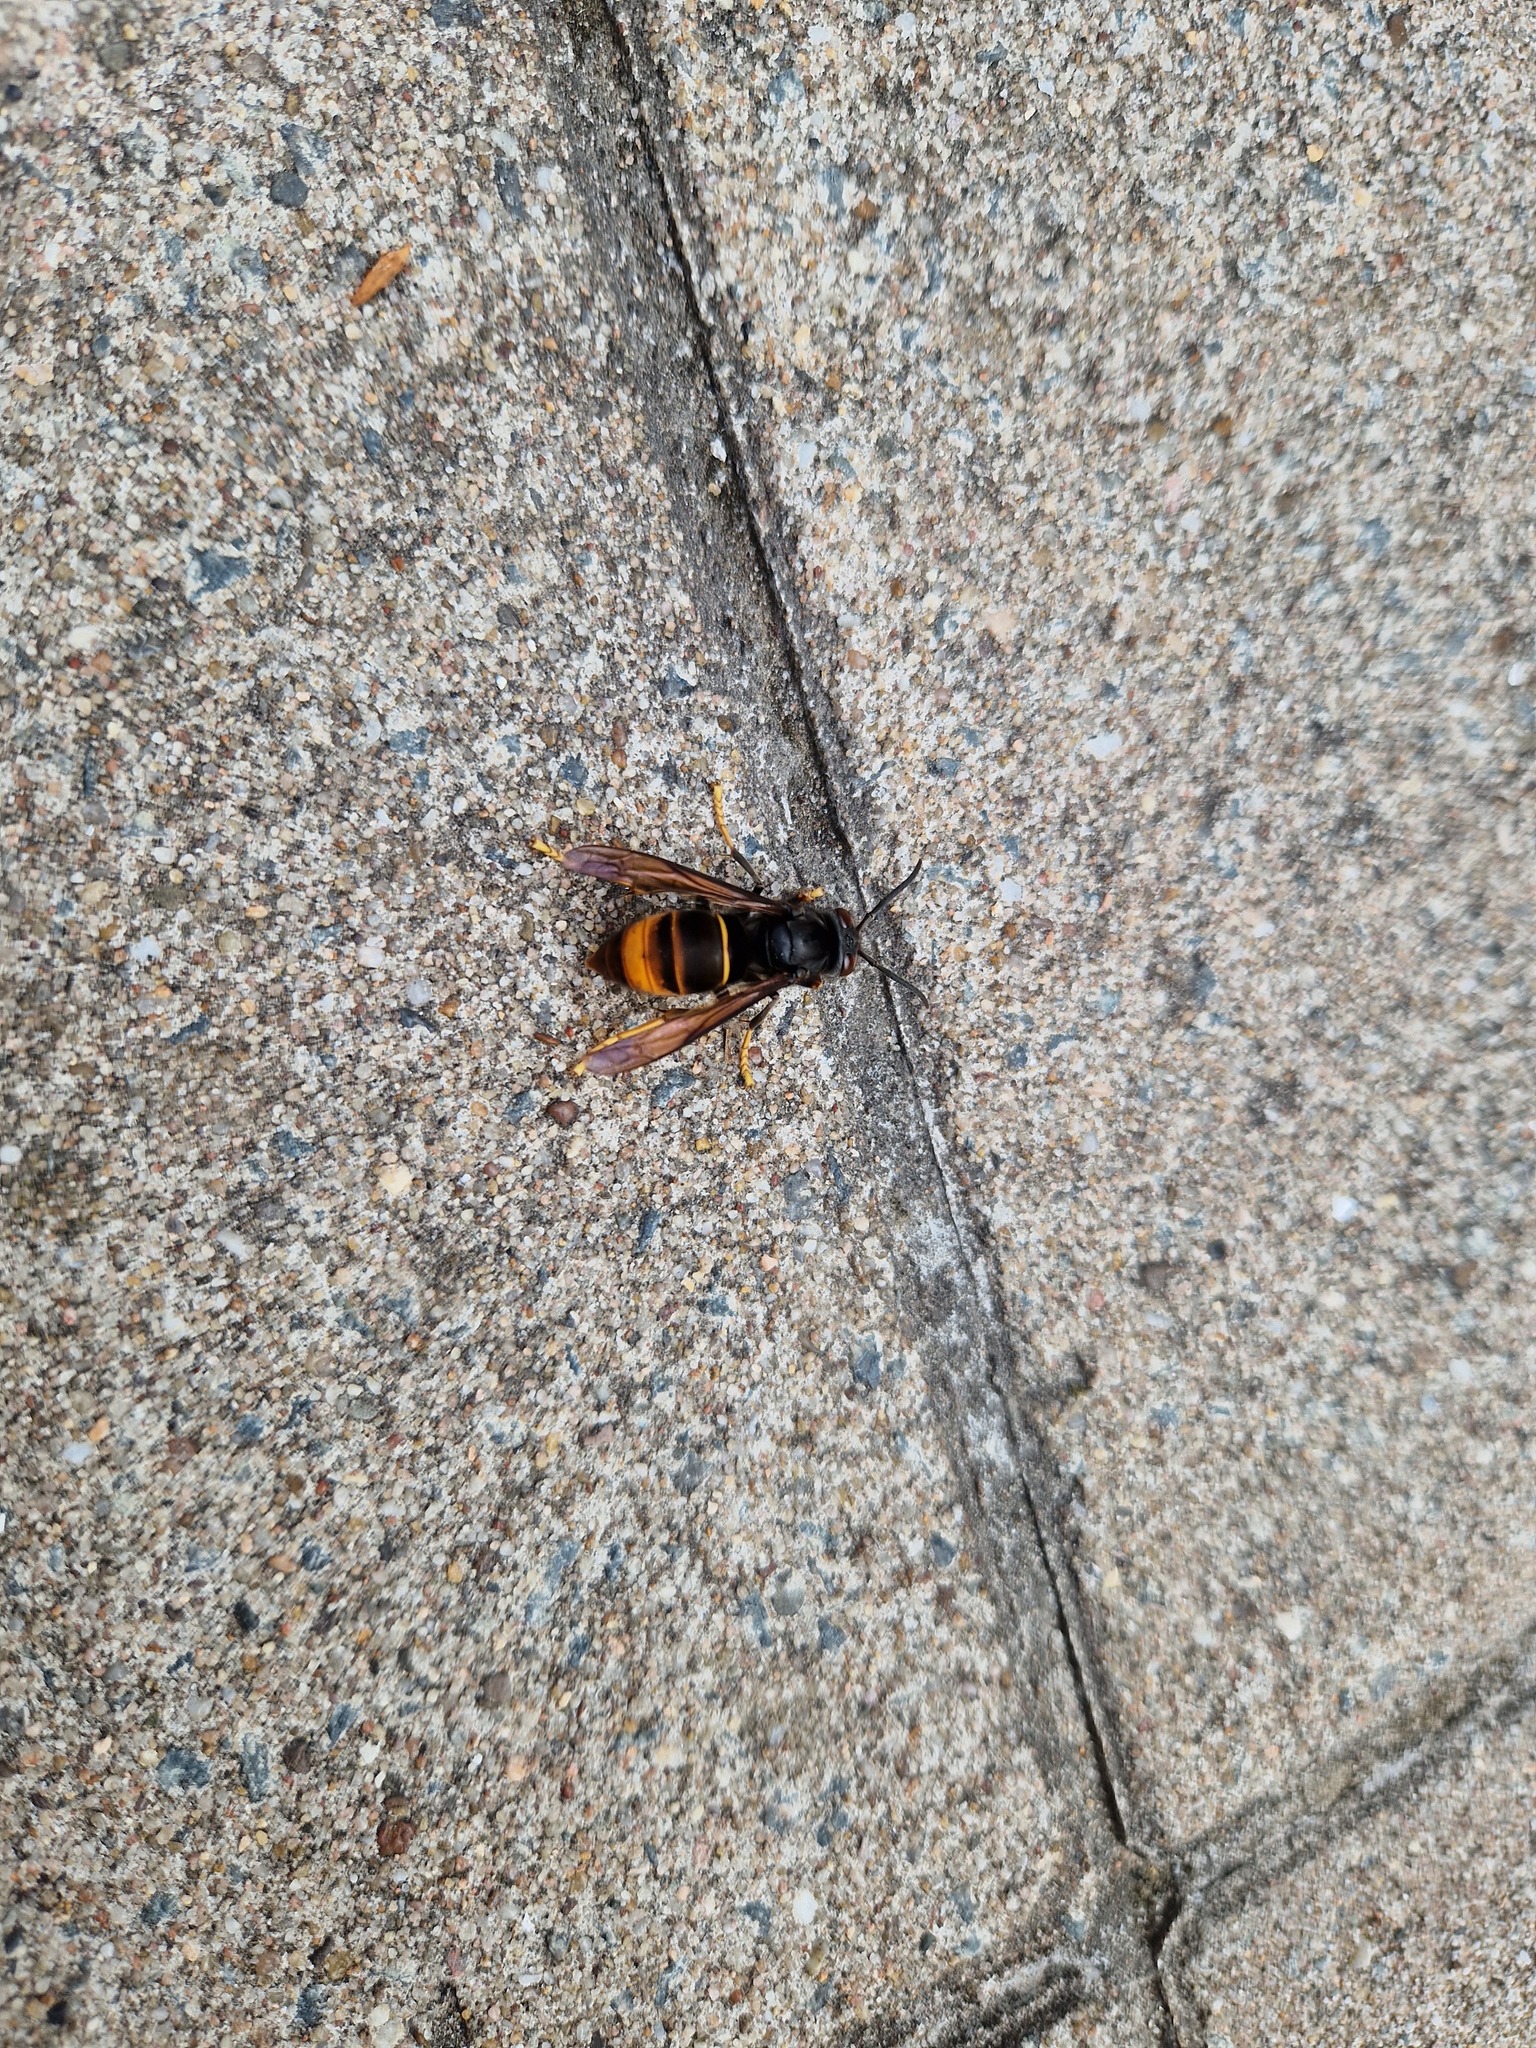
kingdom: Animalia
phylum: Arthropoda
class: Insecta
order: Hymenoptera
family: Vespidae
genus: Vespa
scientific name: Vespa velutina
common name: Asian hornet
